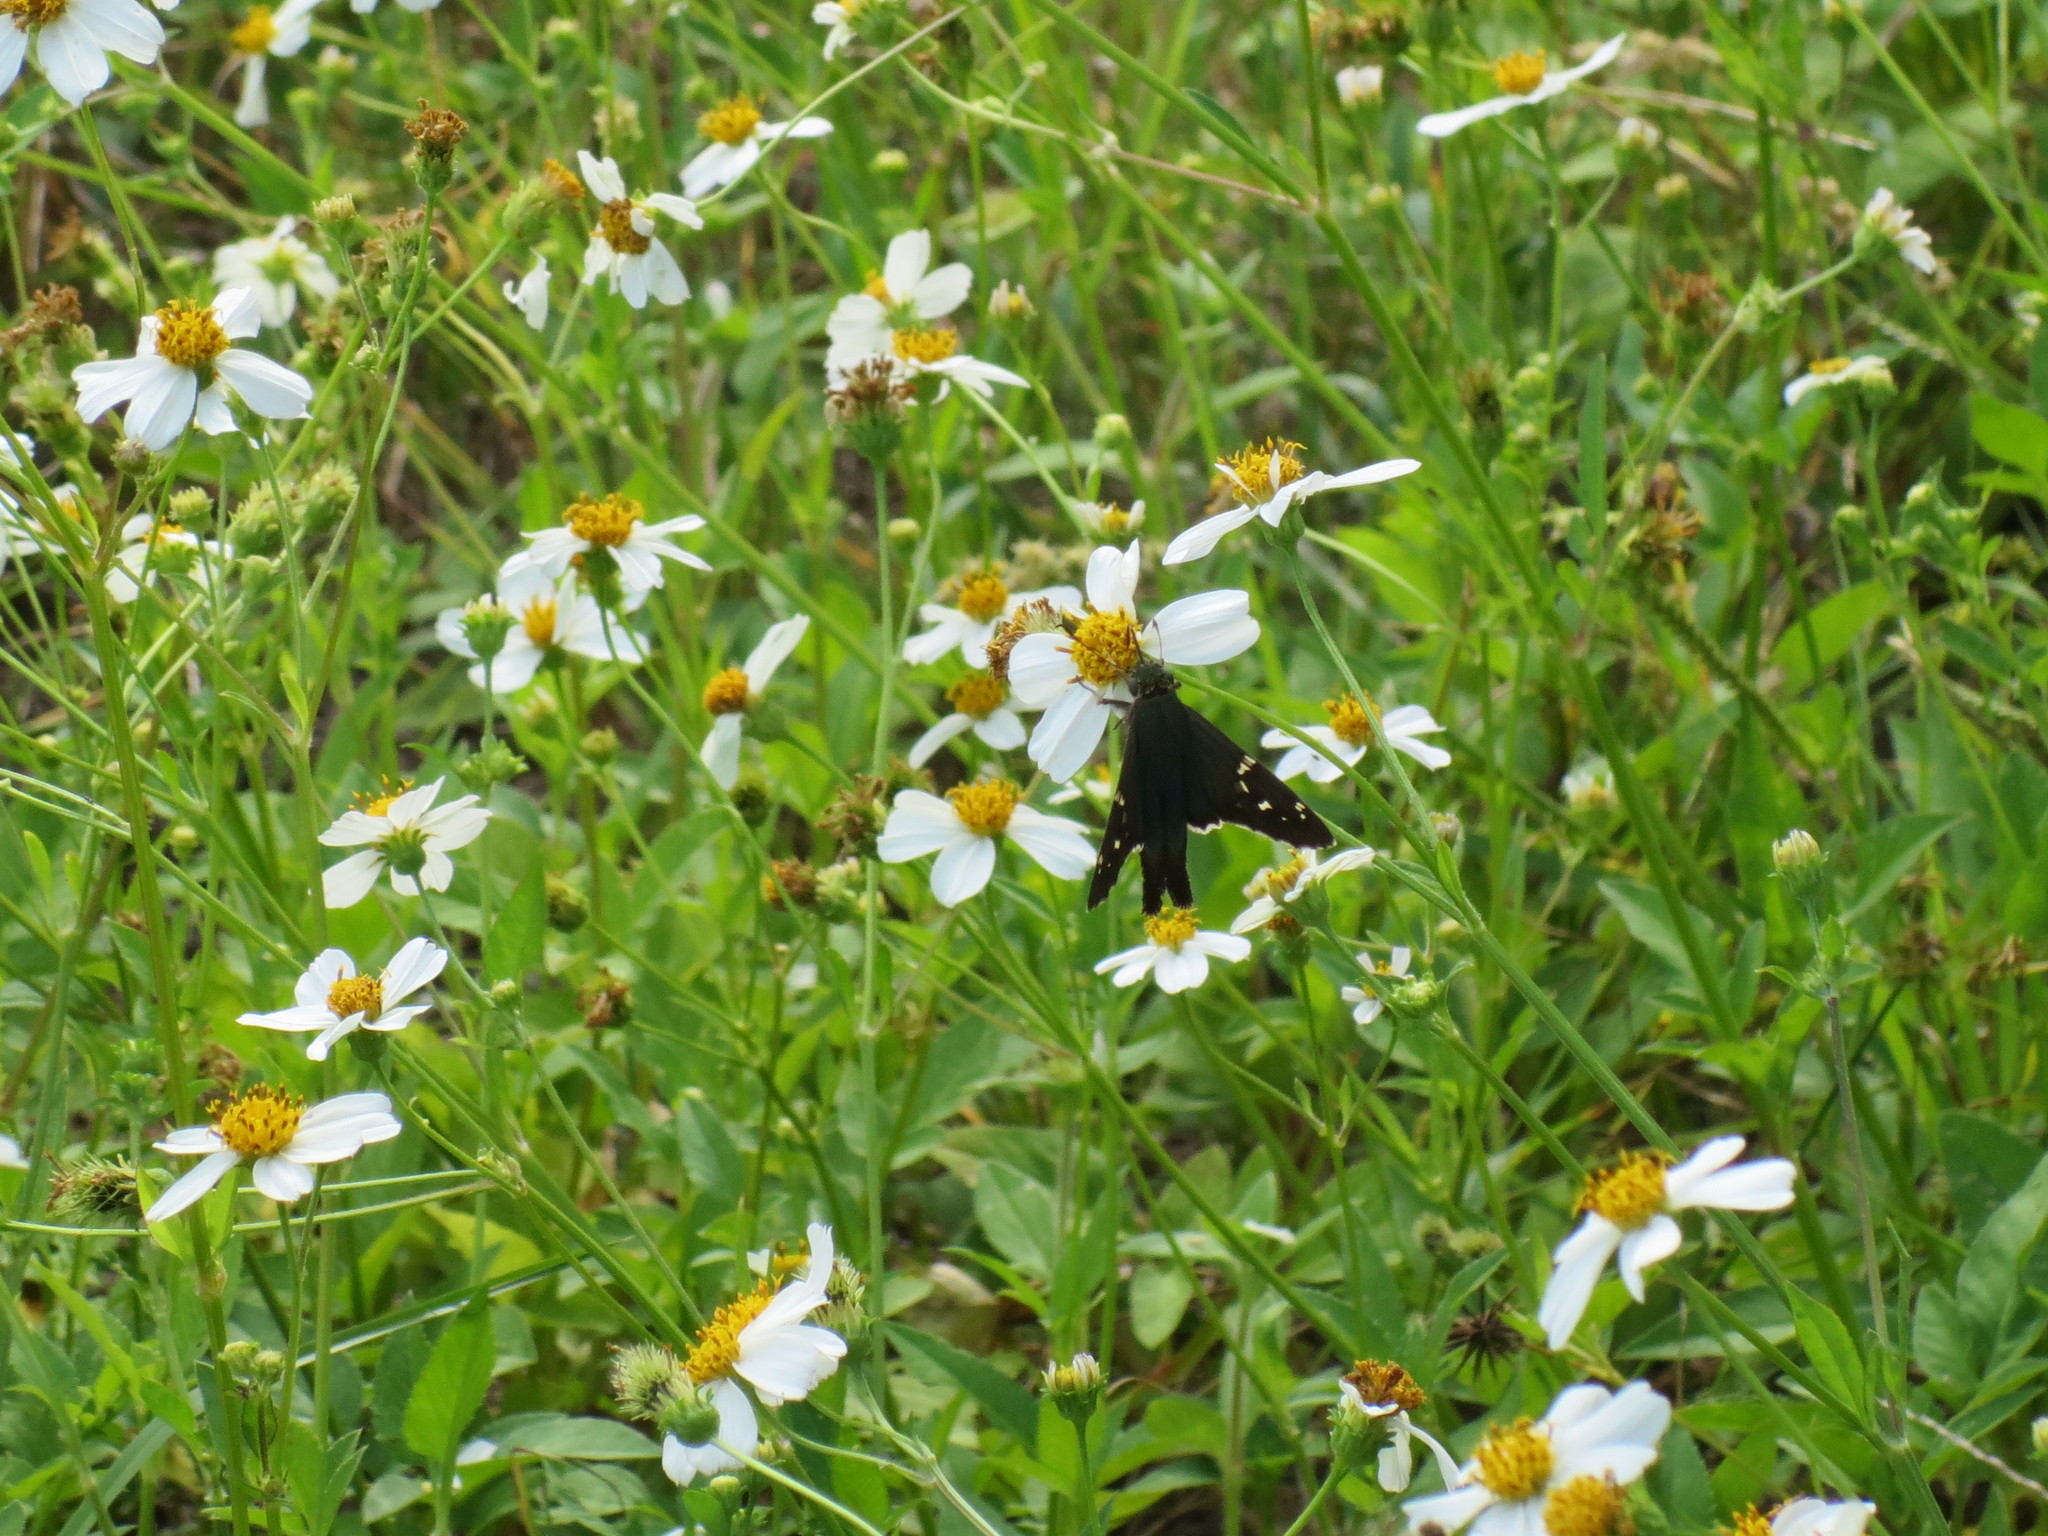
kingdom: Animalia
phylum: Arthropoda
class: Insecta
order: Lepidoptera
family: Hesperiidae
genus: Urbanus
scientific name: Urbanus proteus
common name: Long-tailed skipper
